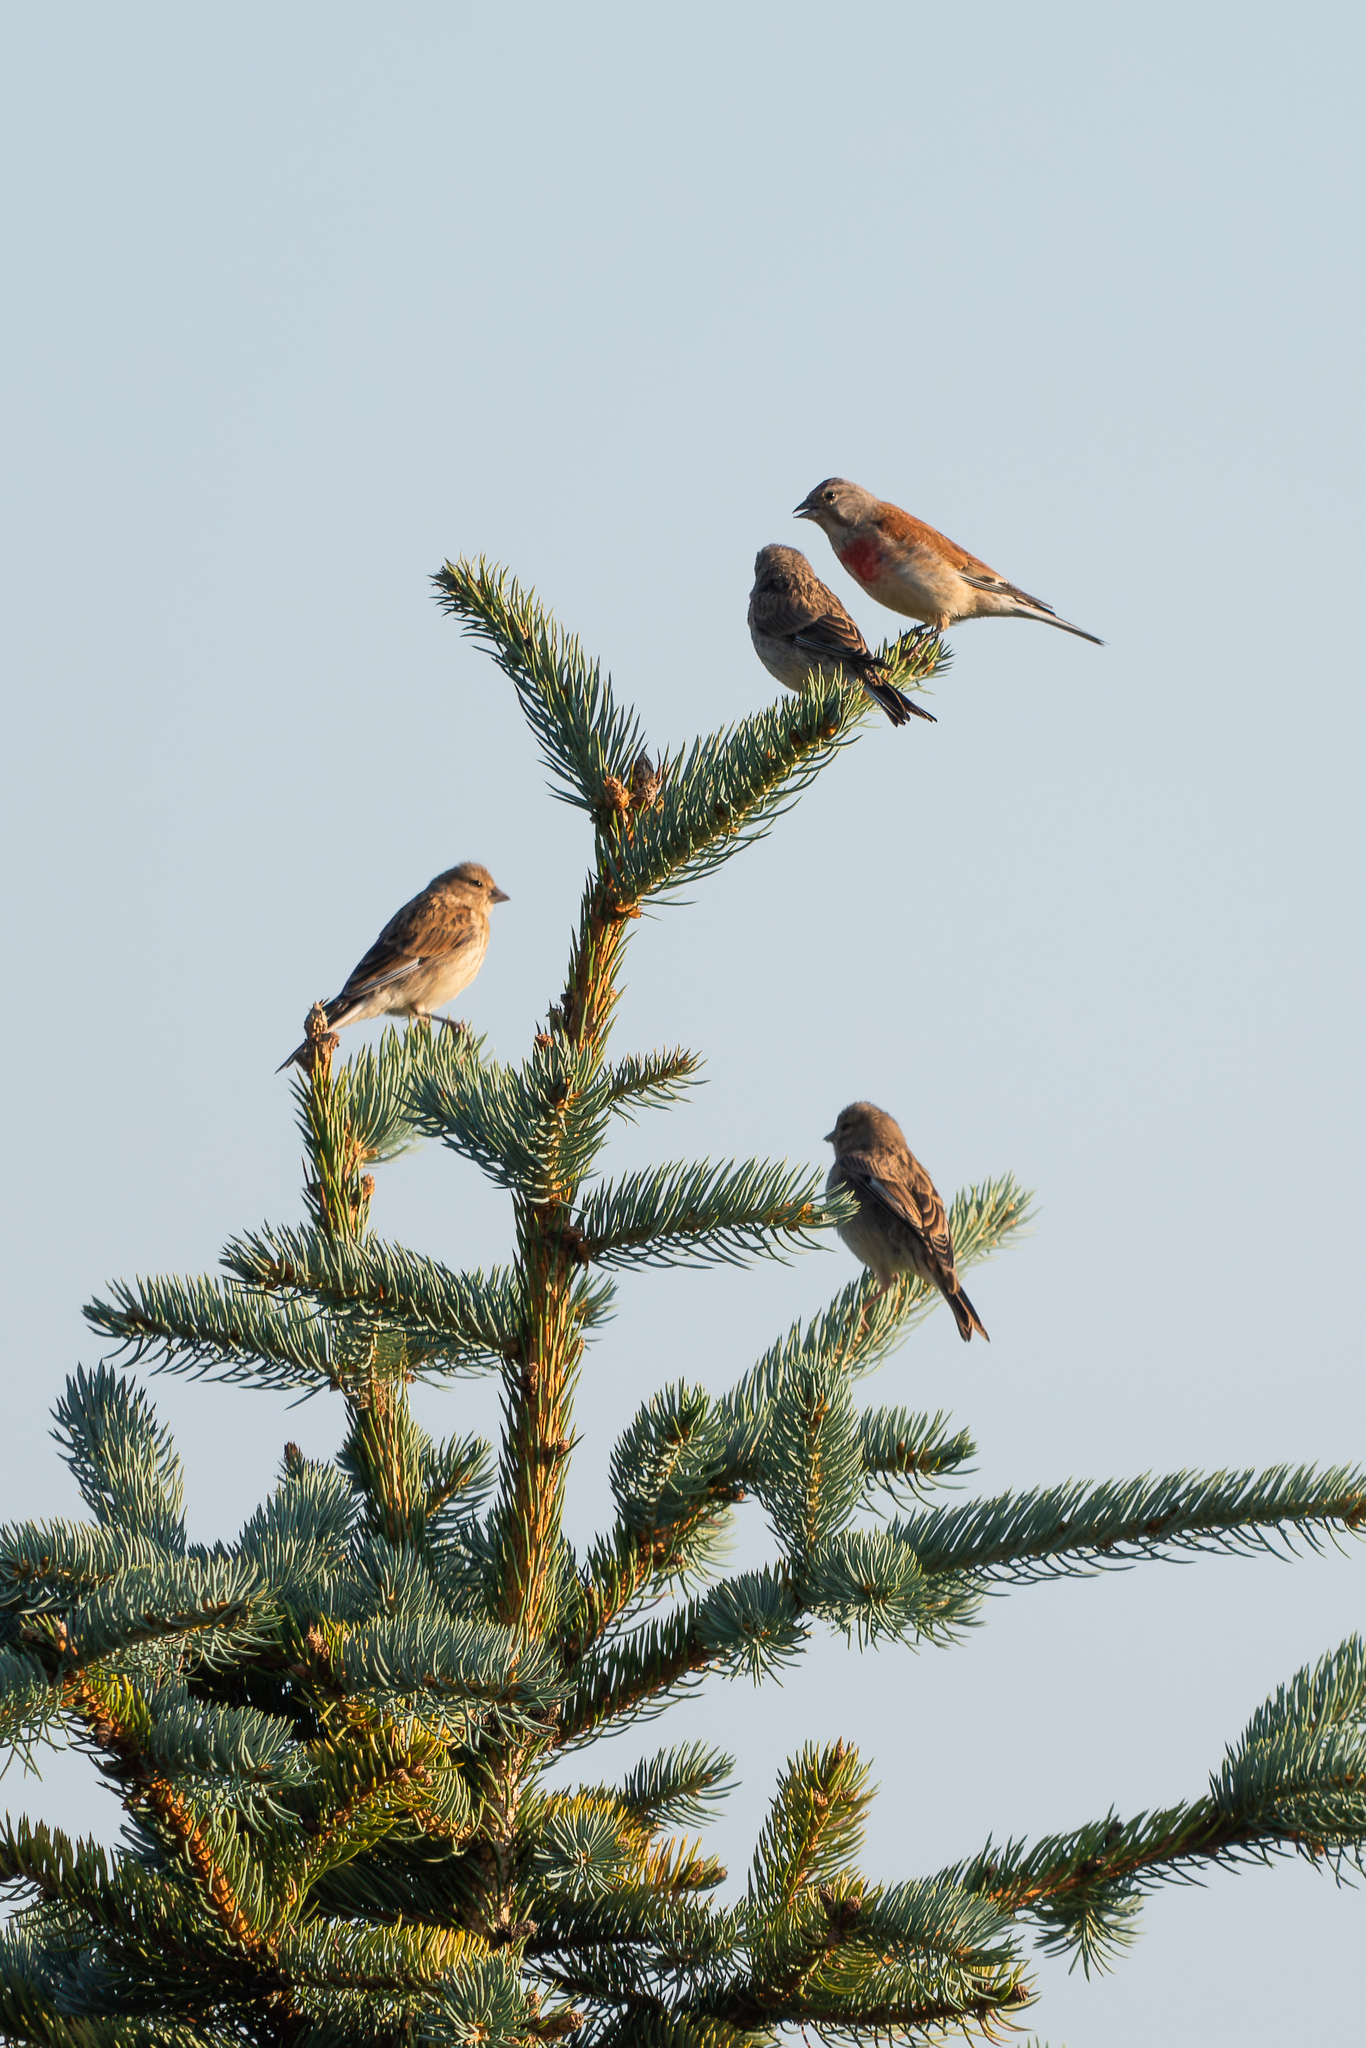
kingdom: Animalia
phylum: Chordata
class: Aves
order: Passeriformes
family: Fringillidae
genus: Linaria
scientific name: Linaria cannabina
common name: Common linnet
